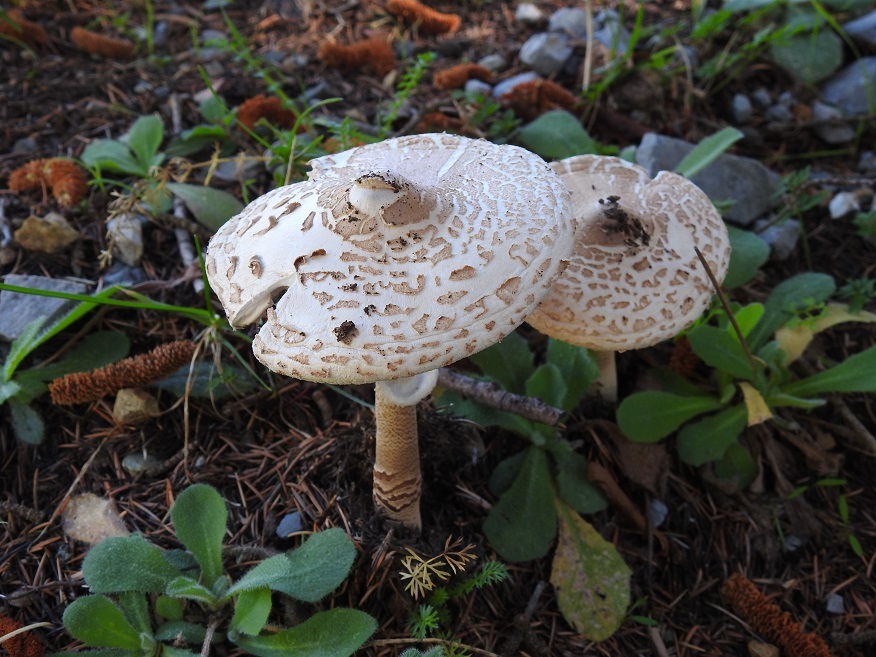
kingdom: Fungi
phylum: Basidiomycota
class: Agaricomycetes
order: Agaricales
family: Agaricaceae
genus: Macrolepiota
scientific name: Macrolepiota procera
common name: Parasol
